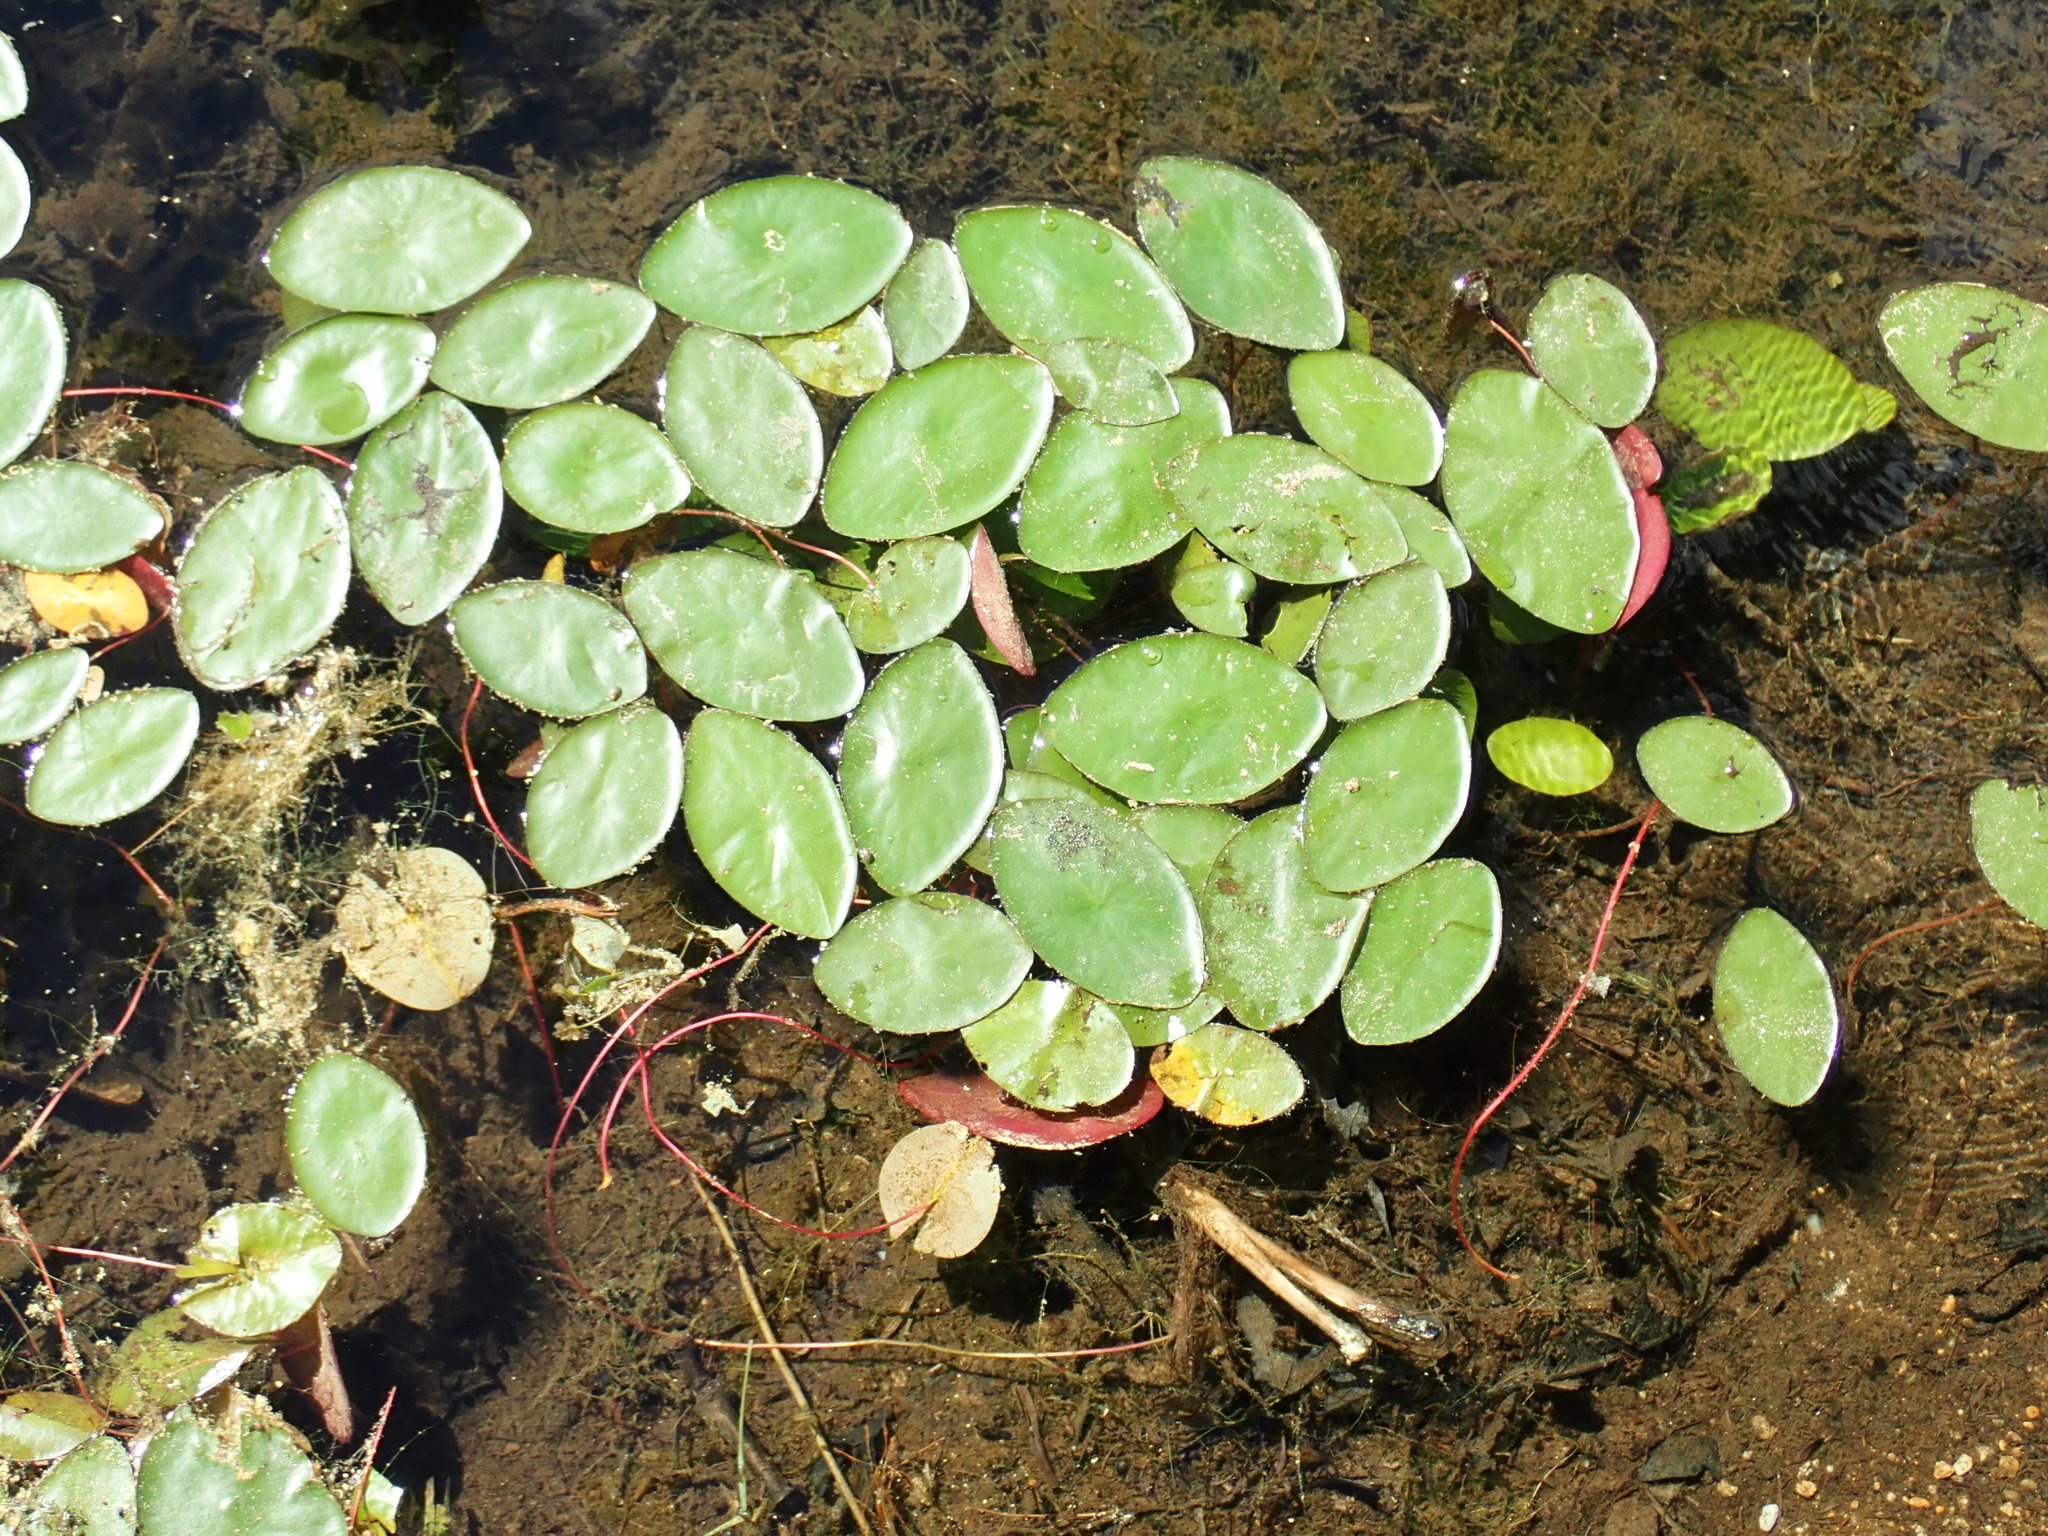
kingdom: Plantae
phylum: Tracheophyta
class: Magnoliopsida
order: Nymphaeales
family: Cabombaceae
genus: Brasenia
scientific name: Brasenia schreberi
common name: Water-shield
